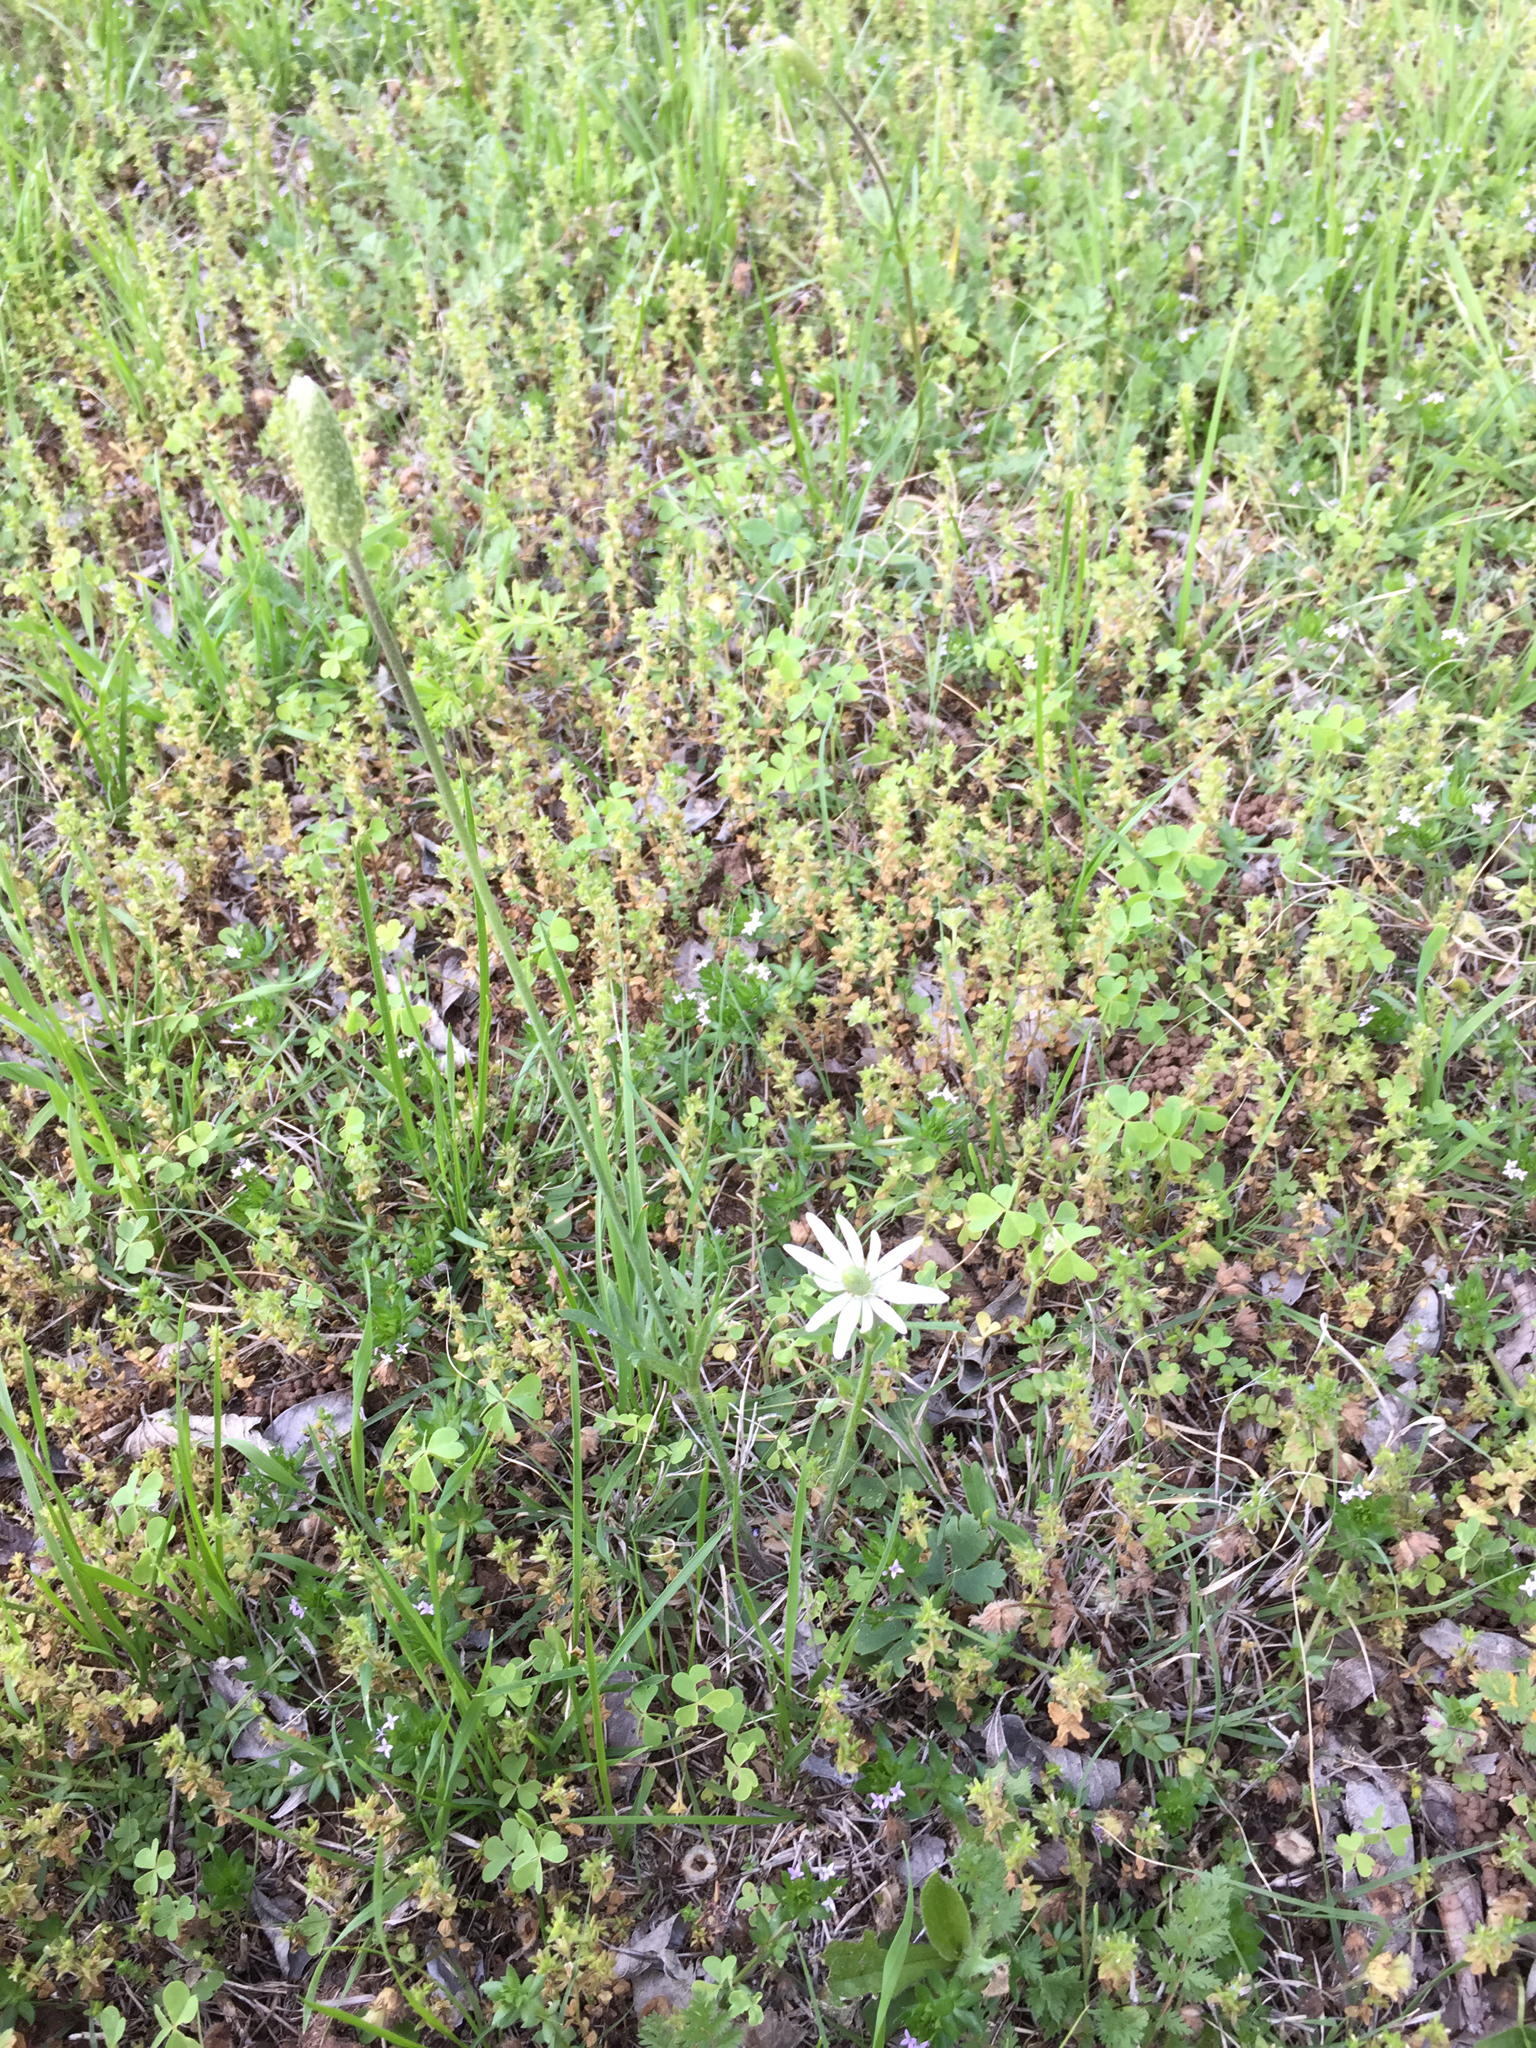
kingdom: Plantae
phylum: Tracheophyta
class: Magnoliopsida
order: Ranunculales
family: Ranunculaceae
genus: Anemone
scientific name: Anemone berlandieri
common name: Ten-petal anemone
